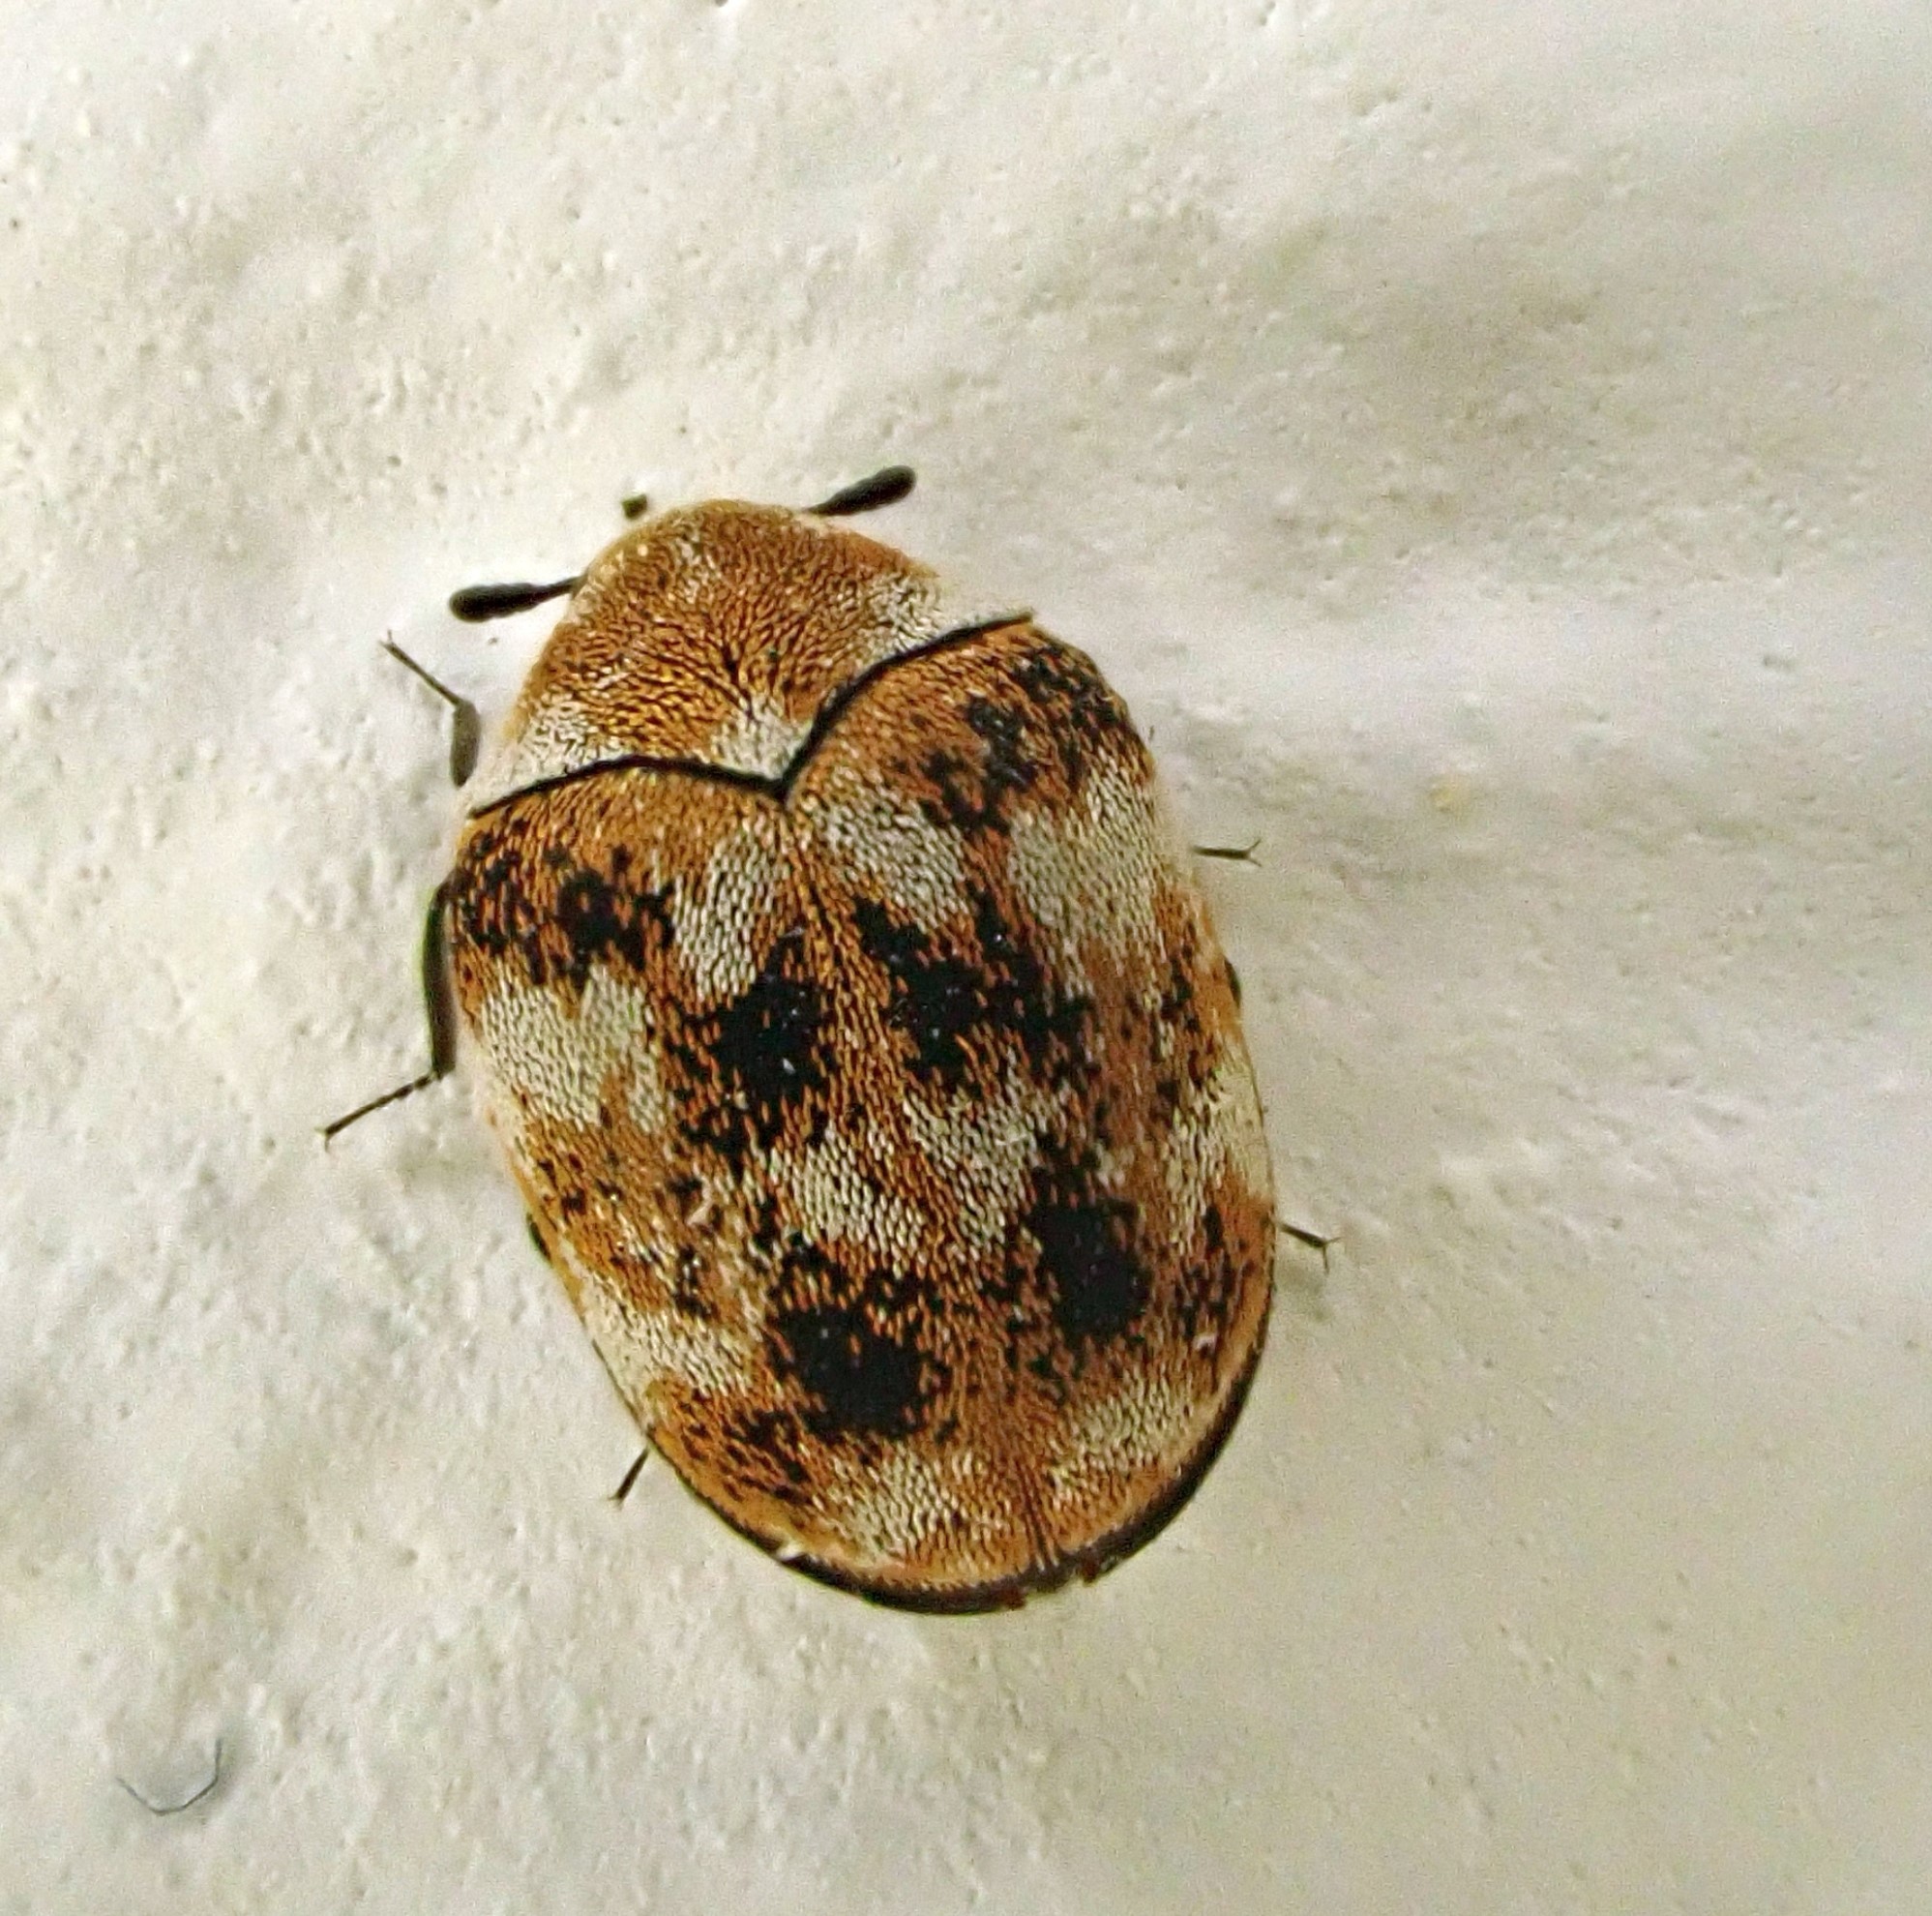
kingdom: Animalia
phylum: Arthropoda
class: Insecta
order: Coleoptera
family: Dermestidae
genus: Anthrenus
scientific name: Anthrenus verbasci
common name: Varied carpet beetle
